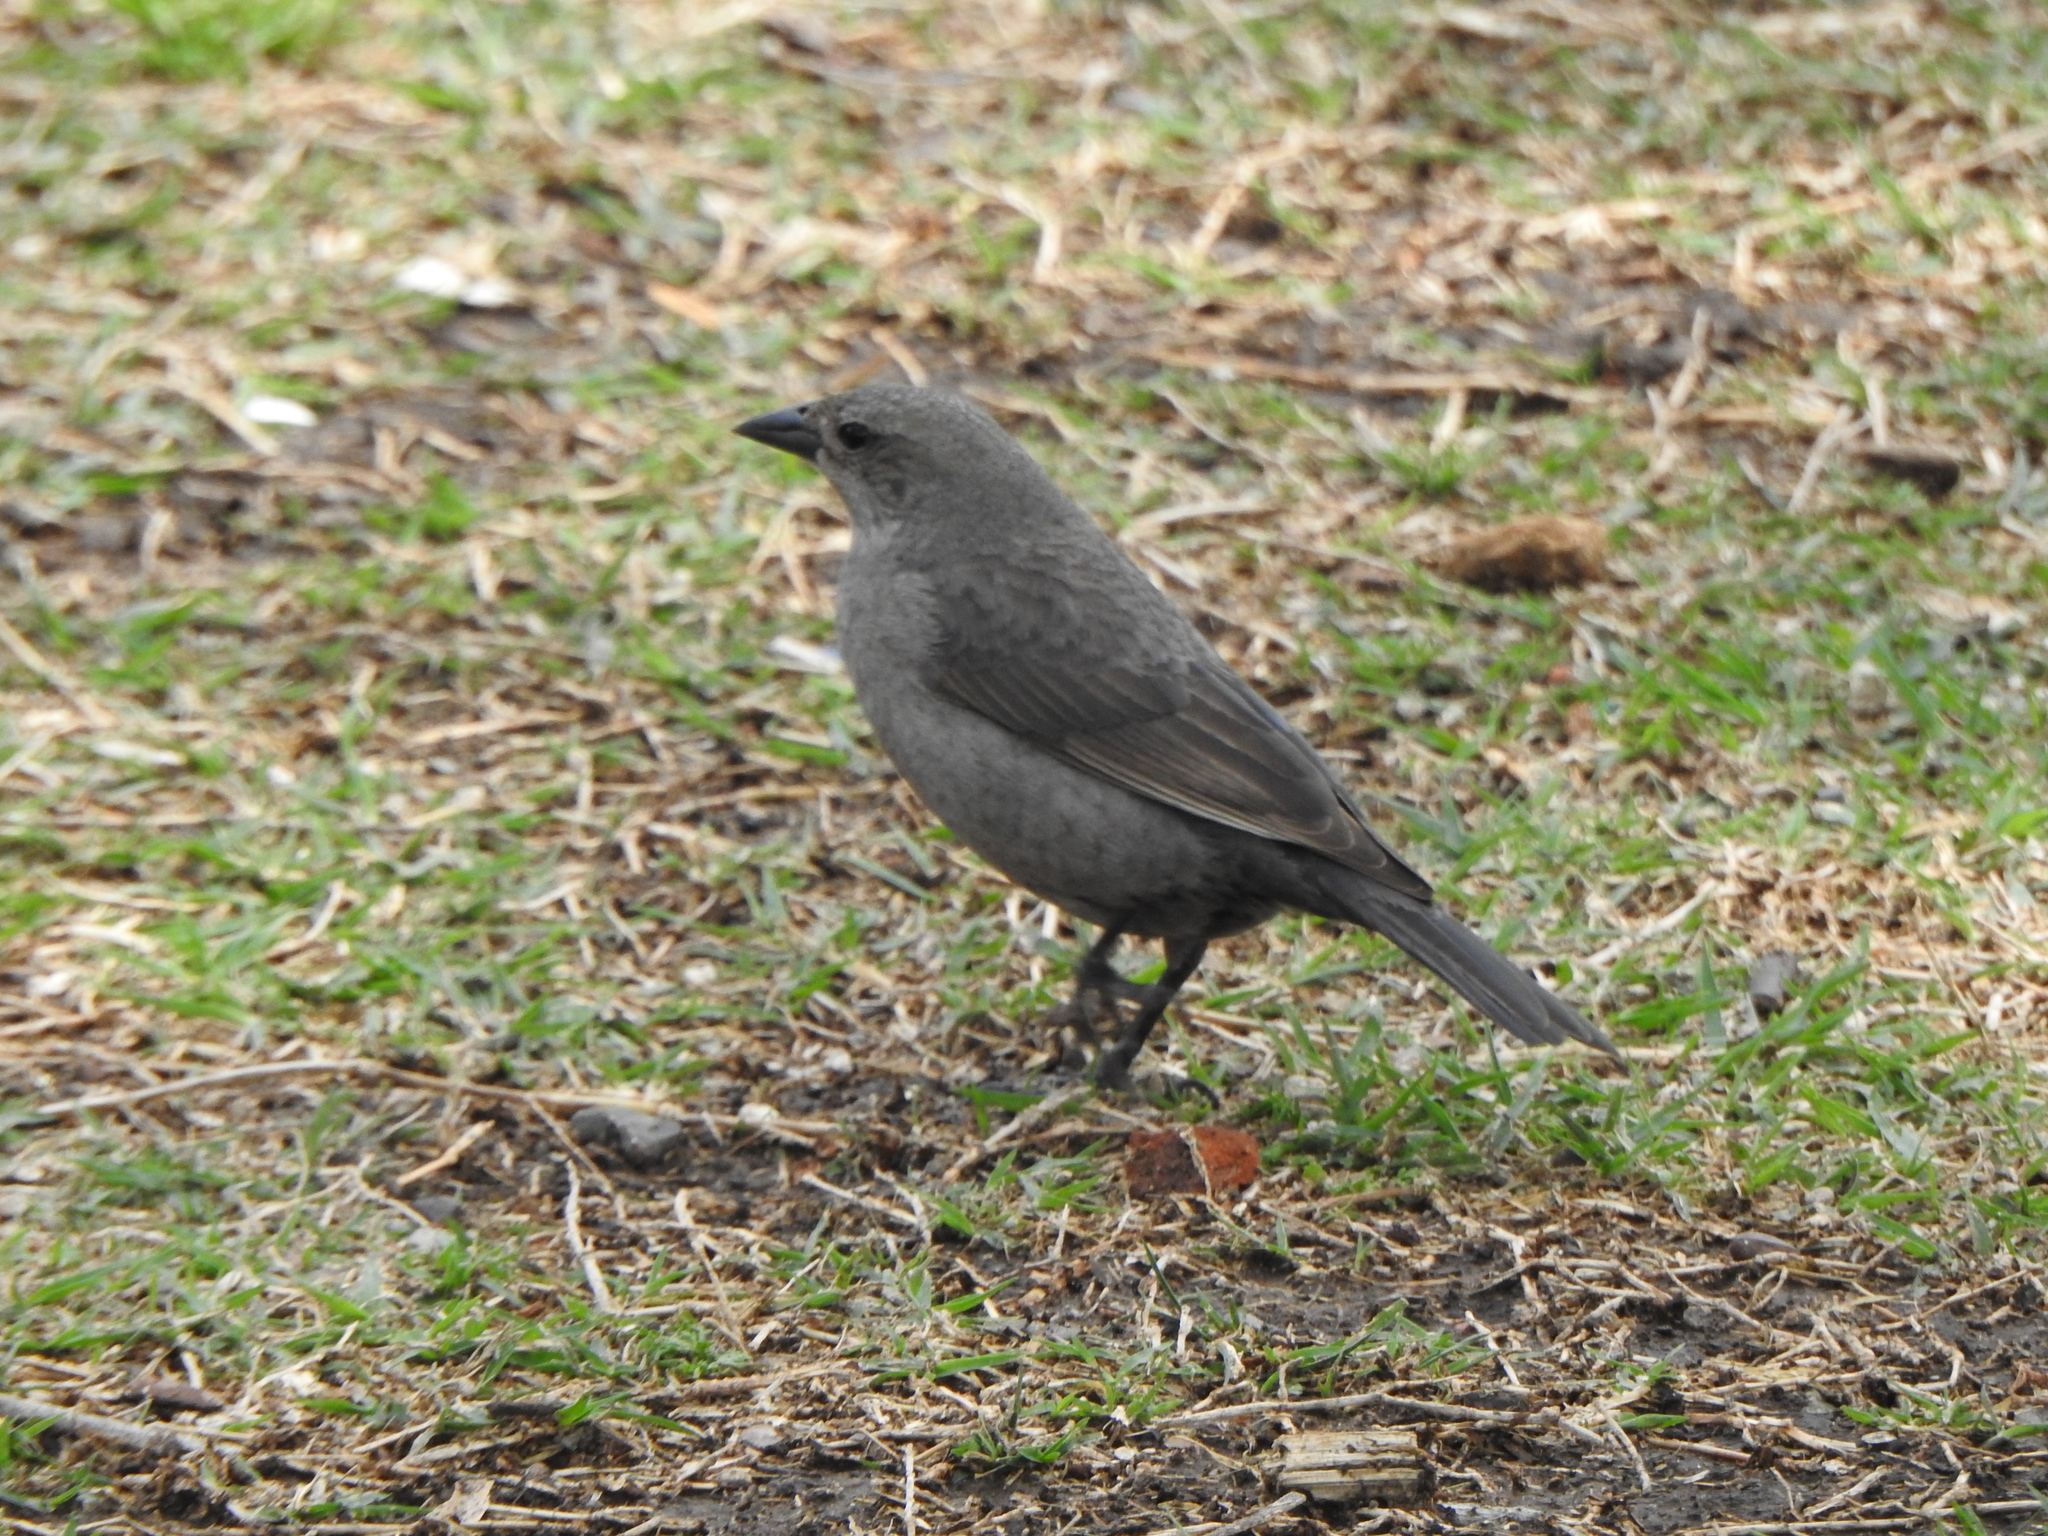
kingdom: Animalia
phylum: Chordata
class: Aves
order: Passeriformes
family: Icteridae
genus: Molothrus
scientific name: Molothrus bonariensis
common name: Shiny cowbird
